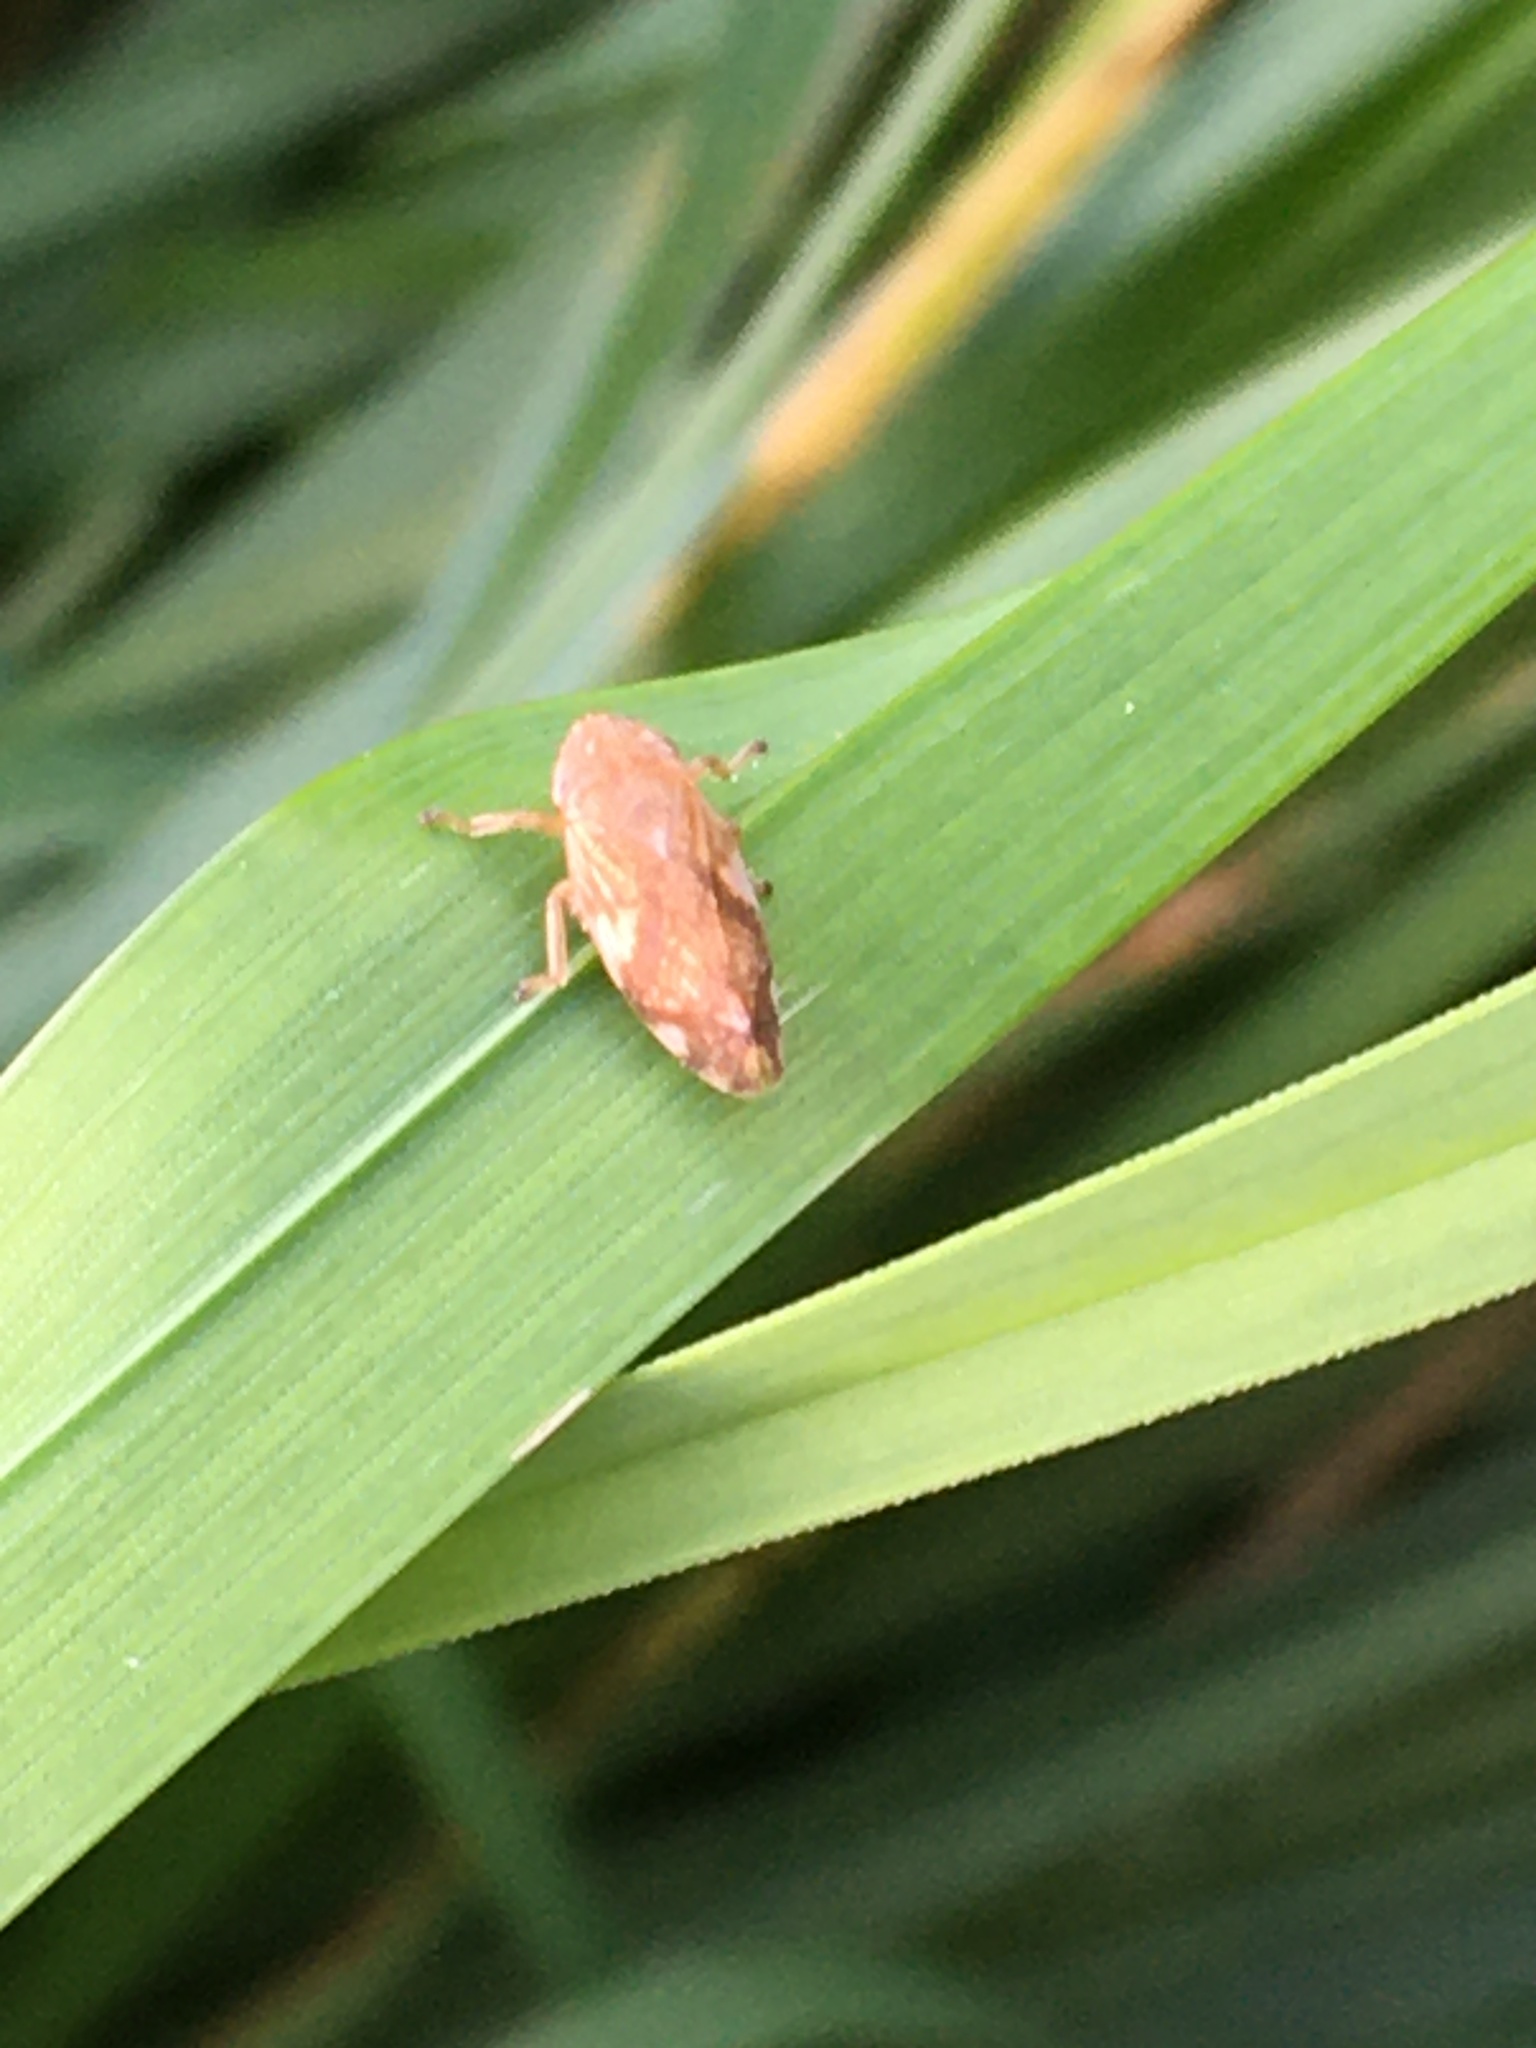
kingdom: Animalia
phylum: Arthropoda
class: Insecta
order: Hemiptera
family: Aphrophoridae
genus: Philaenus
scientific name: Philaenus spumarius
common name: Meadow spittlebug
